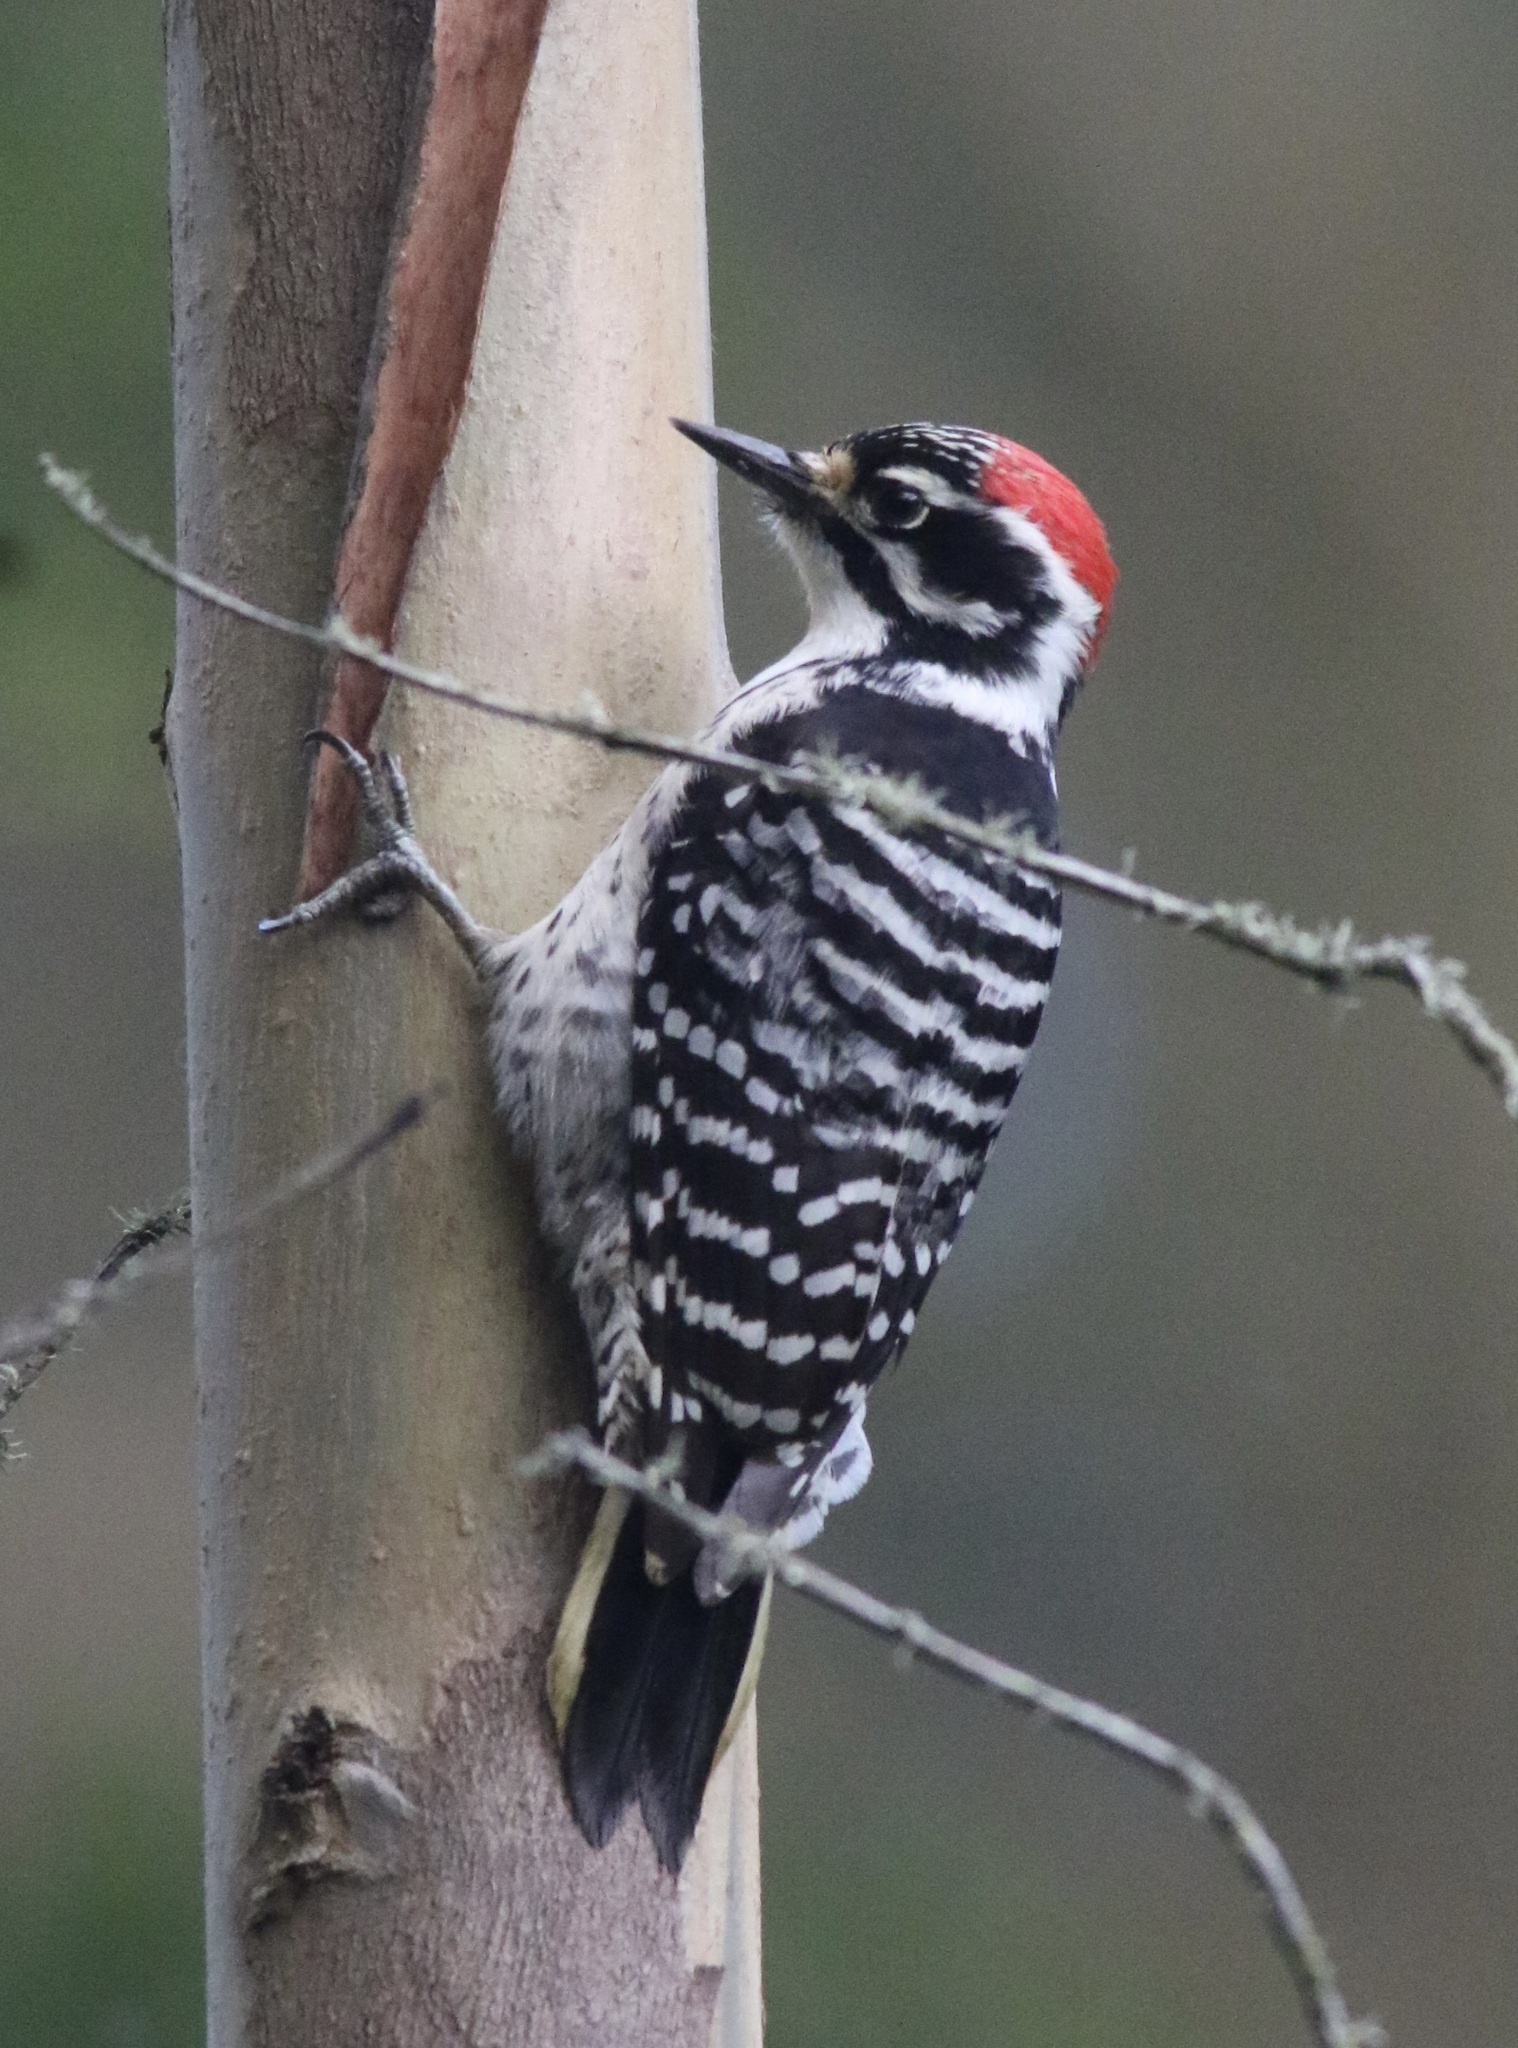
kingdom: Animalia
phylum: Chordata
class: Aves
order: Piciformes
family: Picidae
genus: Dryobates
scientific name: Dryobates nuttallii
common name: Nuttall's woodpecker
